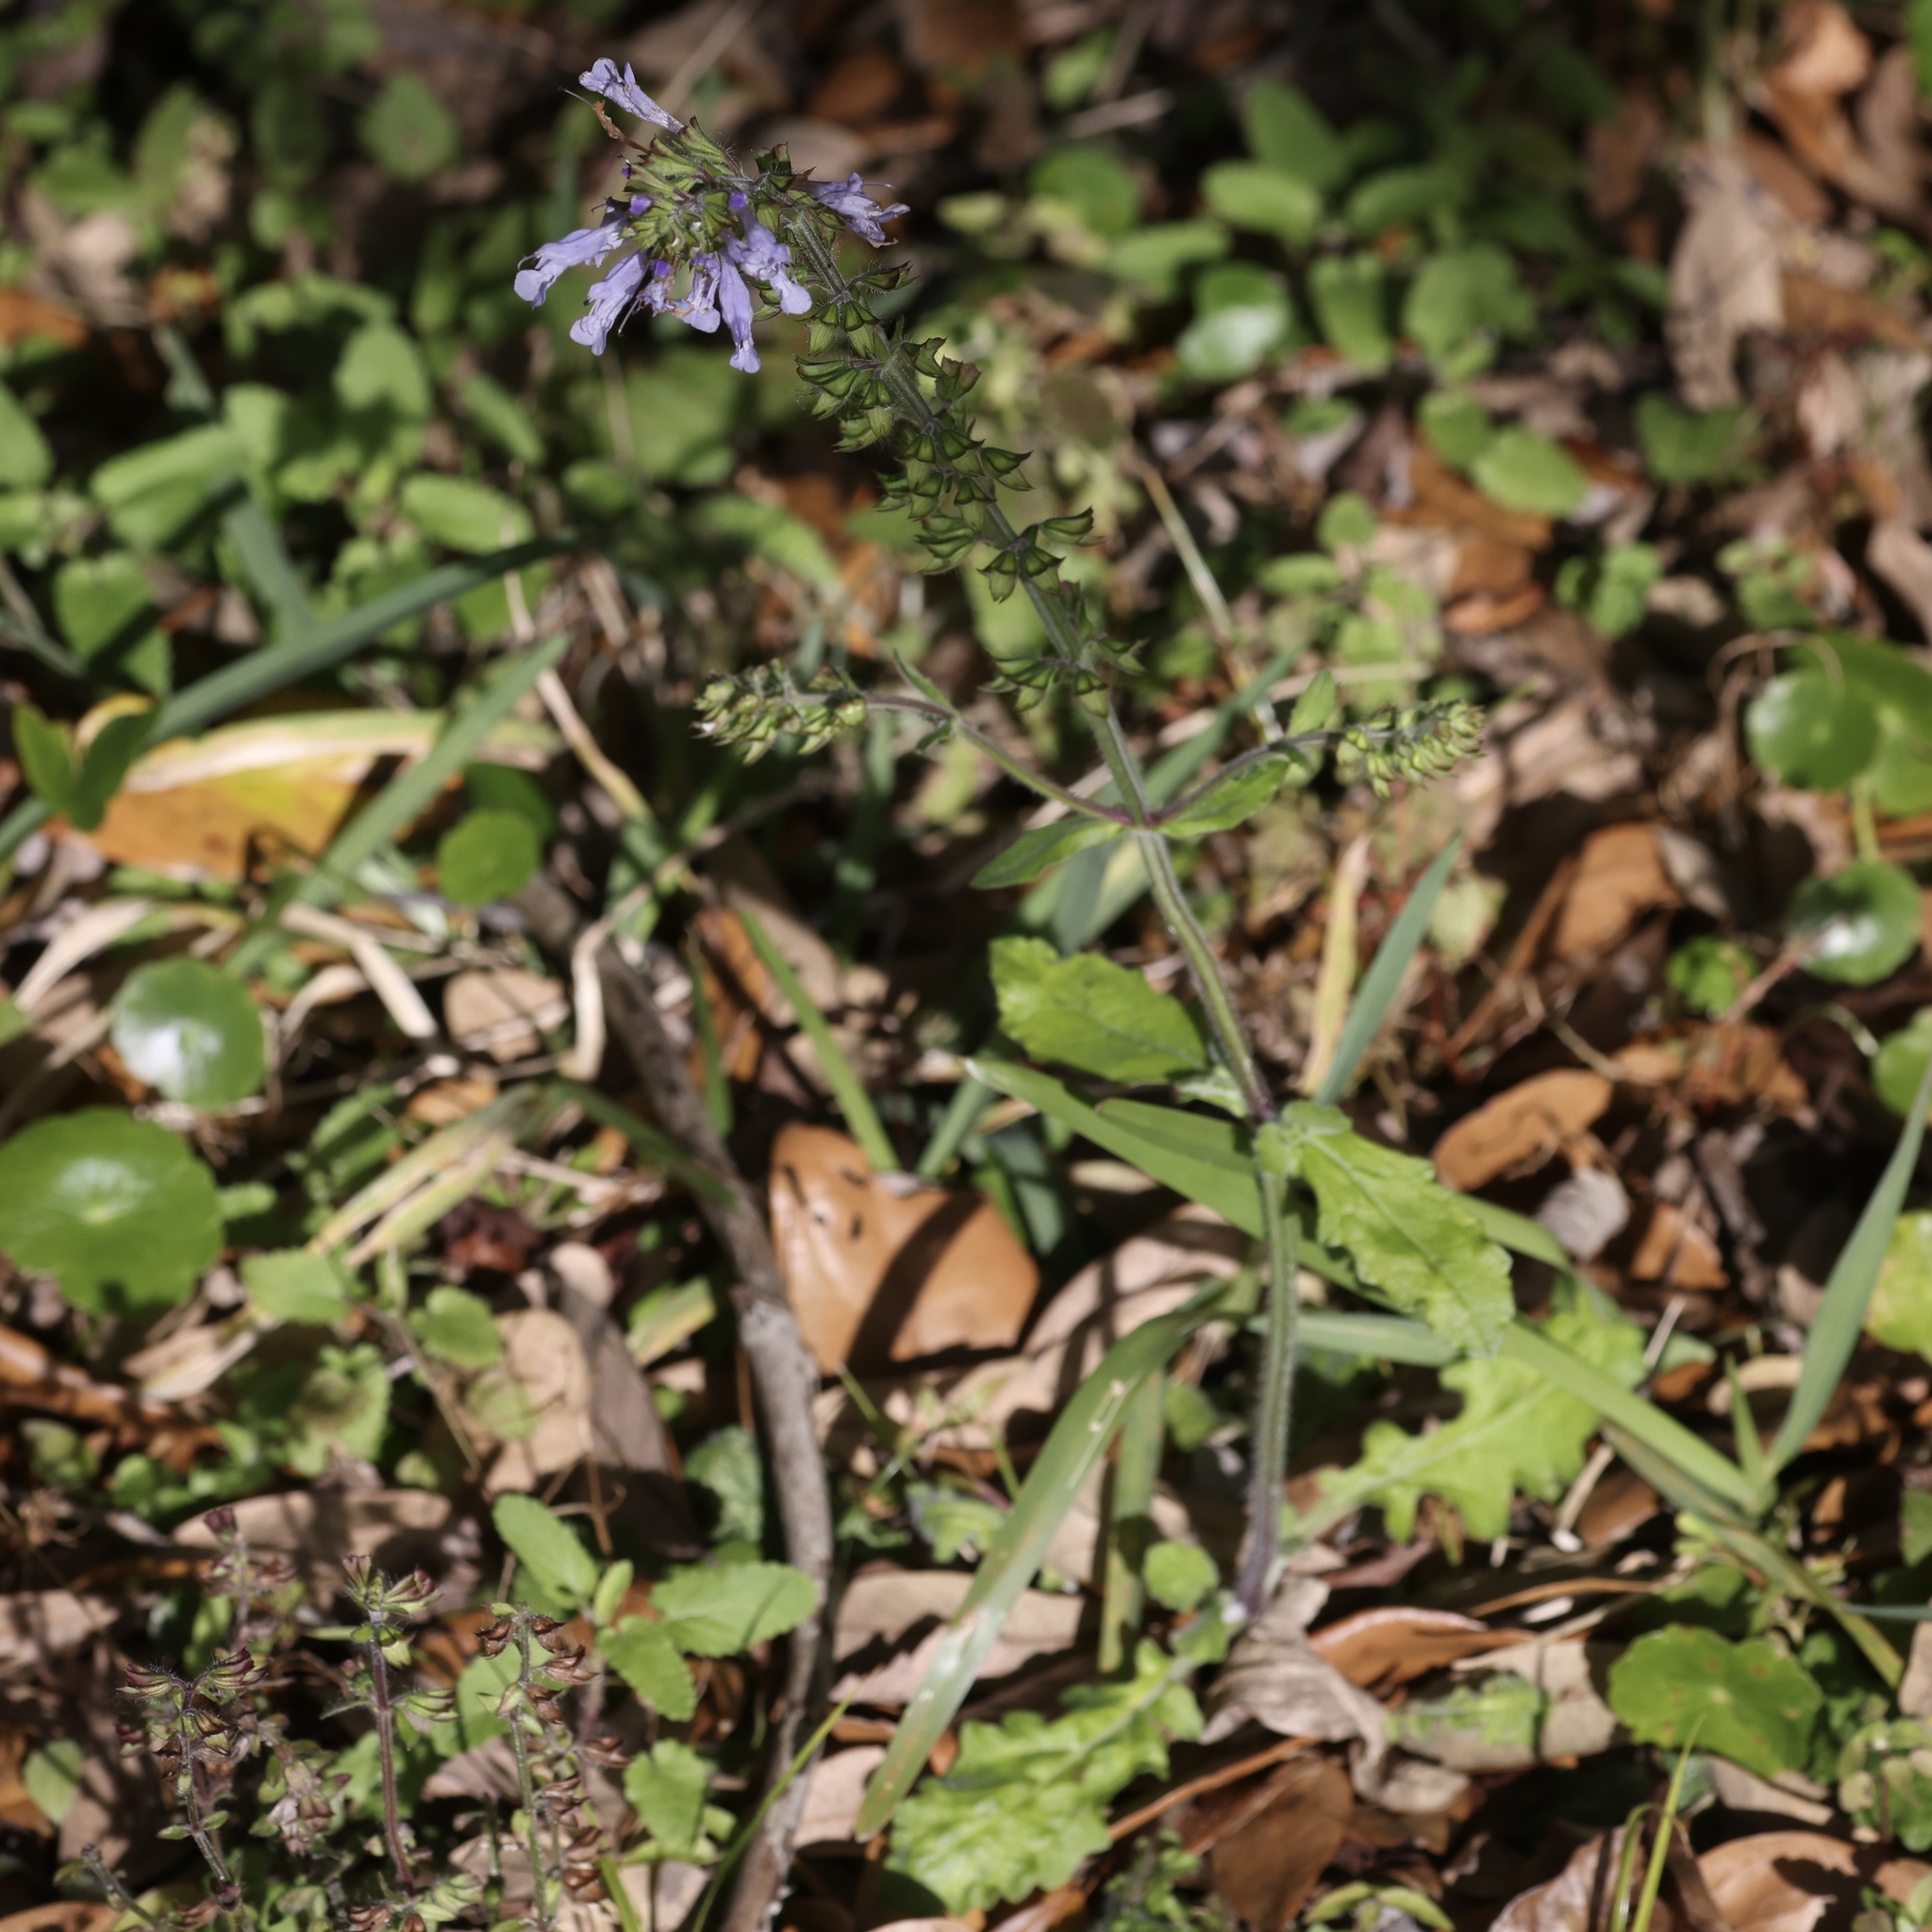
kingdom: Plantae
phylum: Tracheophyta
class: Magnoliopsida
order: Lamiales
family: Lamiaceae
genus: Salvia
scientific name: Salvia lyrata
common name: Cancerweed
